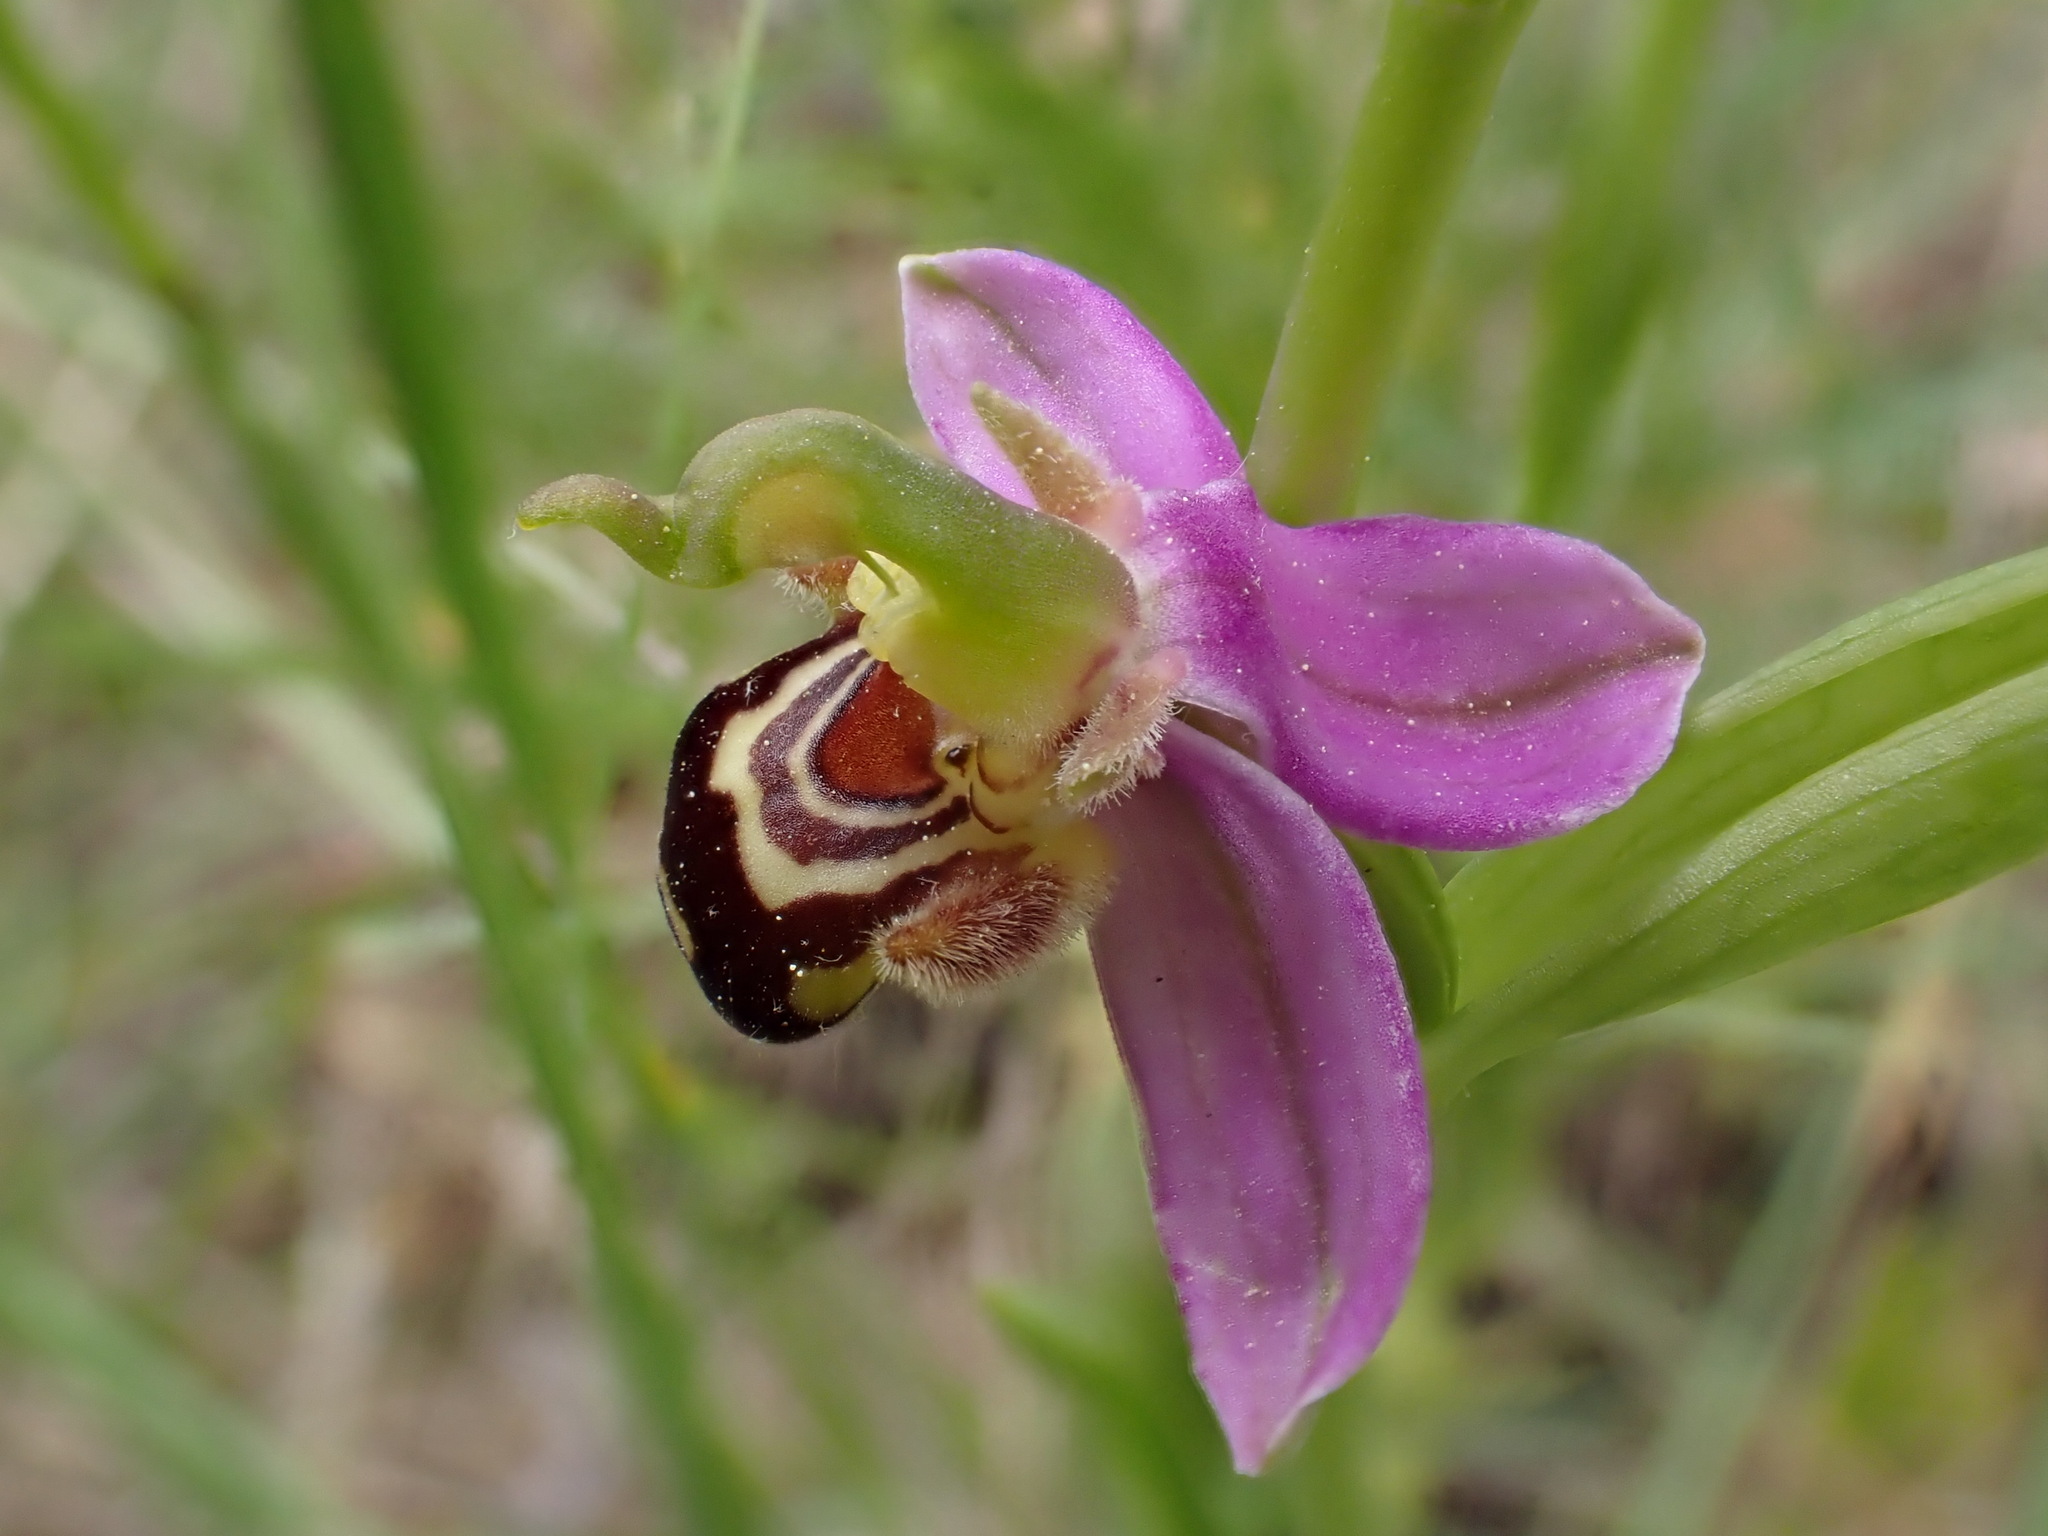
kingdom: Plantae
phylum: Tracheophyta
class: Liliopsida
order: Asparagales
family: Orchidaceae
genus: Ophrys
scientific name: Ophrys apifera
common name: Bee orchid
